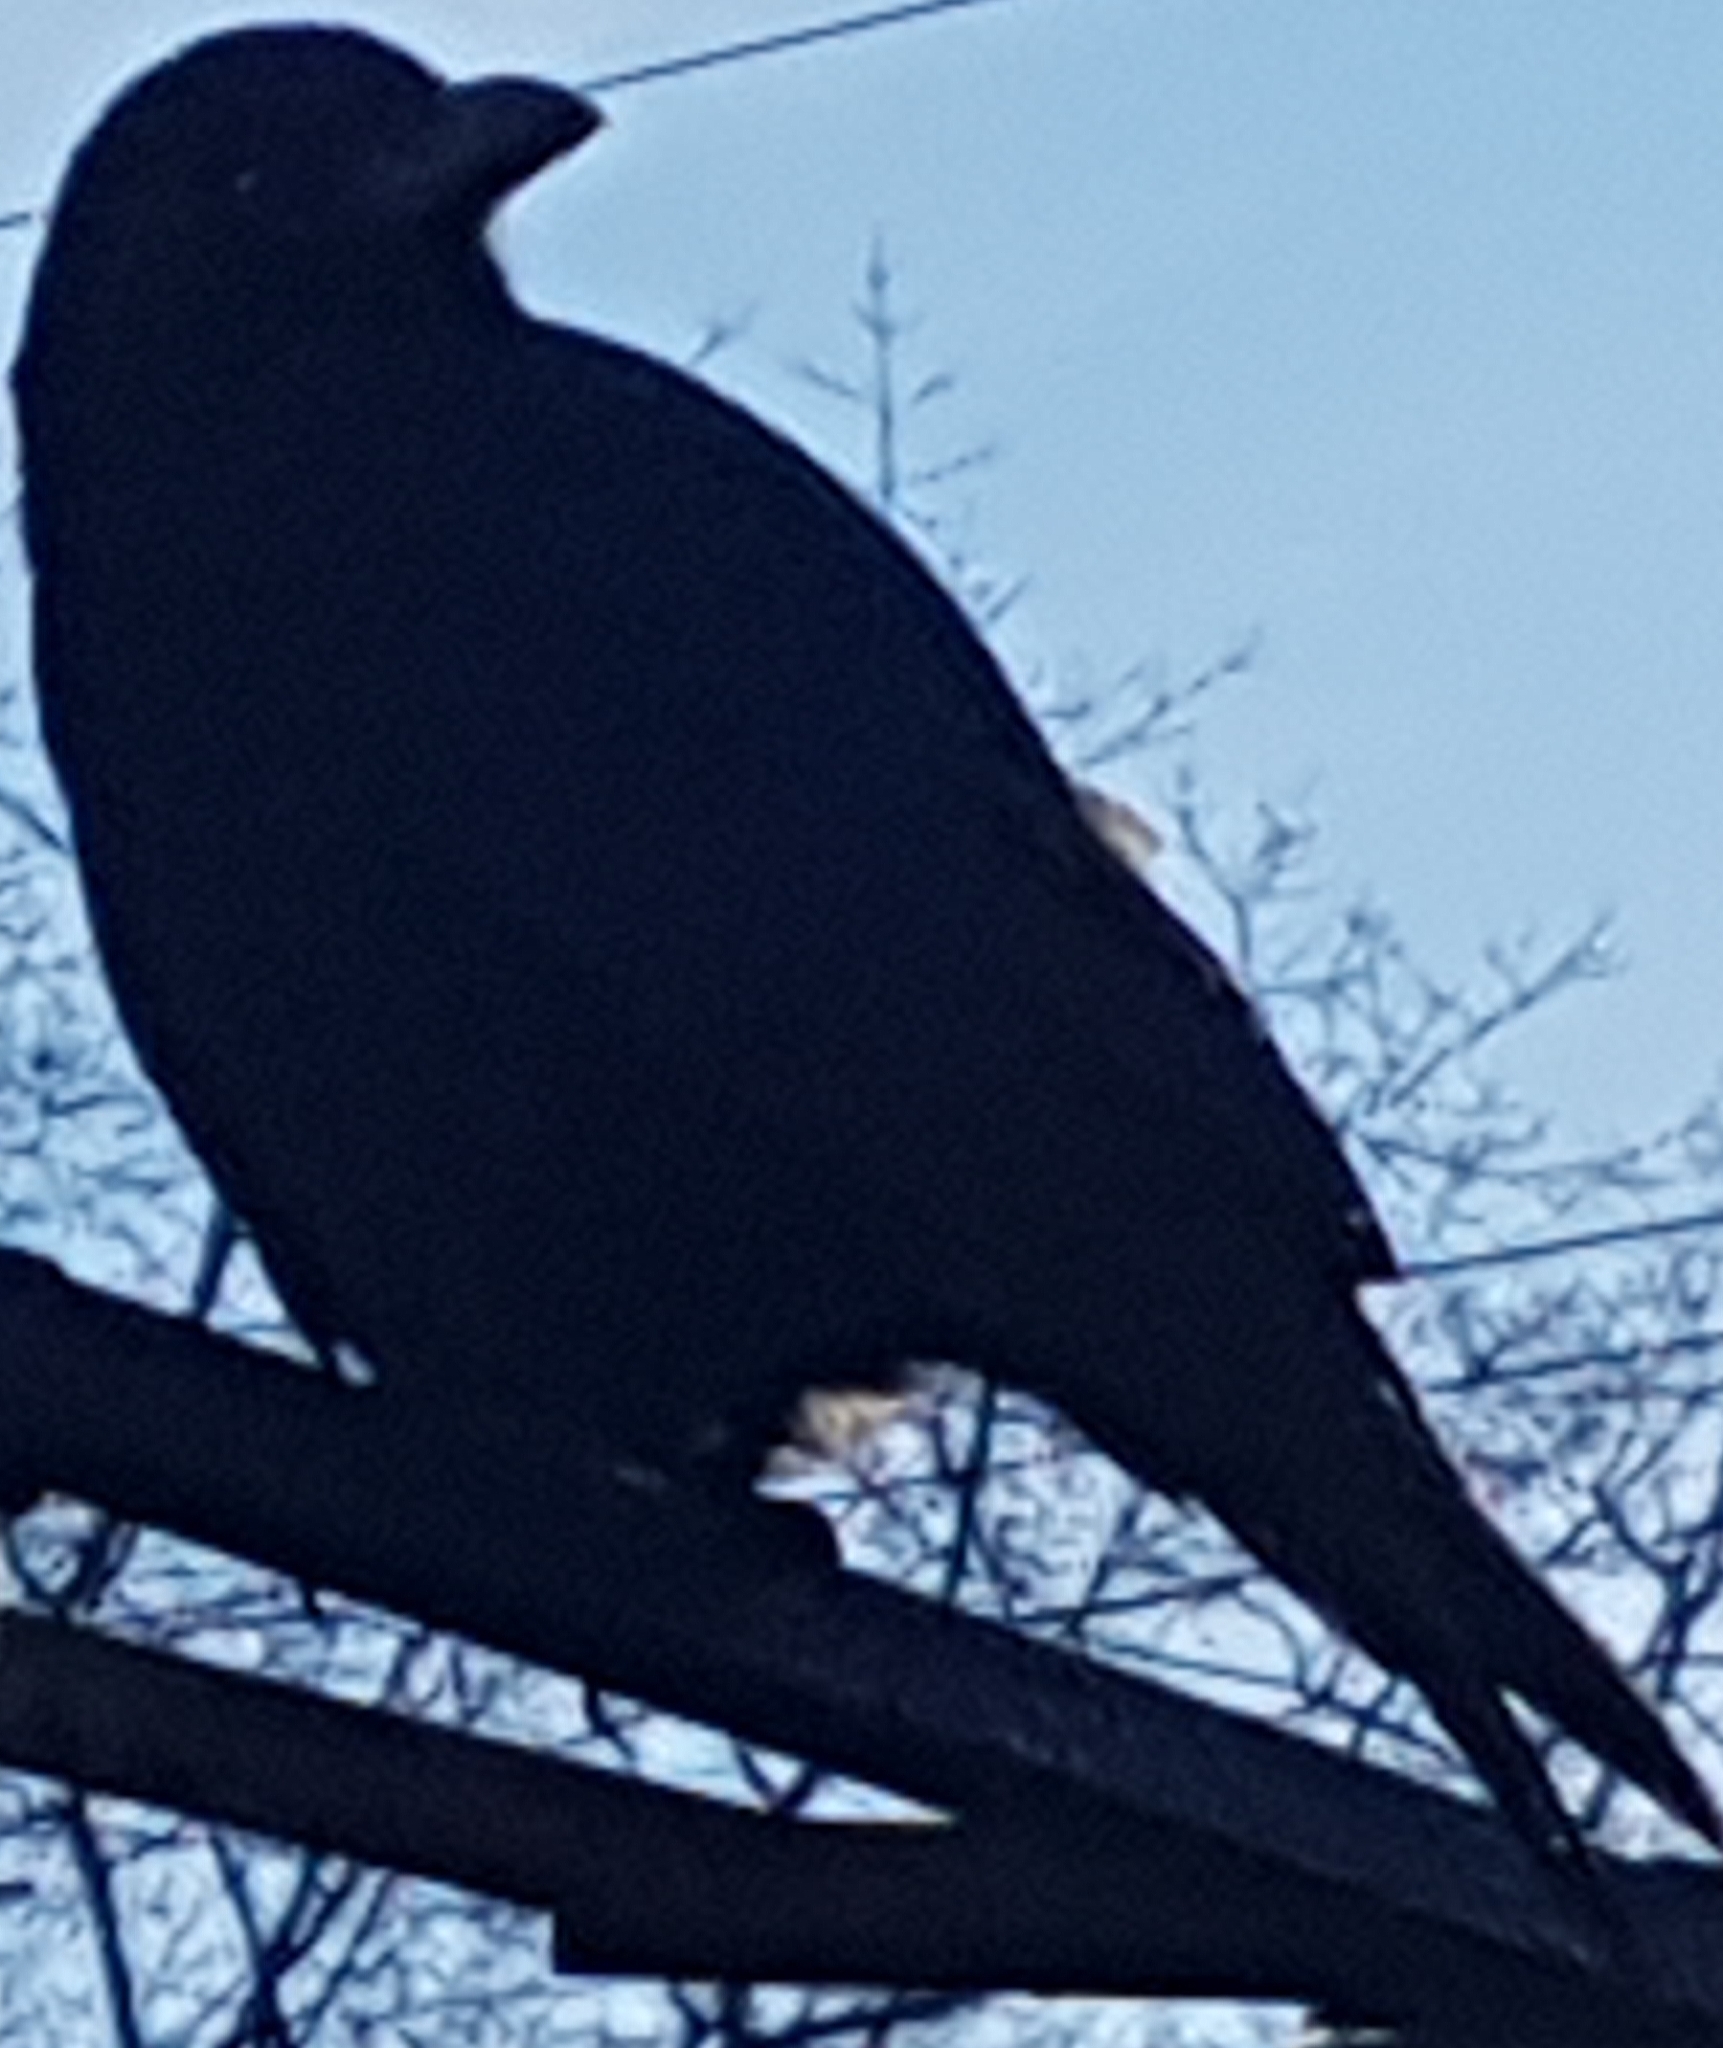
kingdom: Animalia
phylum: Chordata
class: Aves
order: Passeriformes
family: Corvidae
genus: Corvus
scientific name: Corvus brachyrhynchos
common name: American crow
